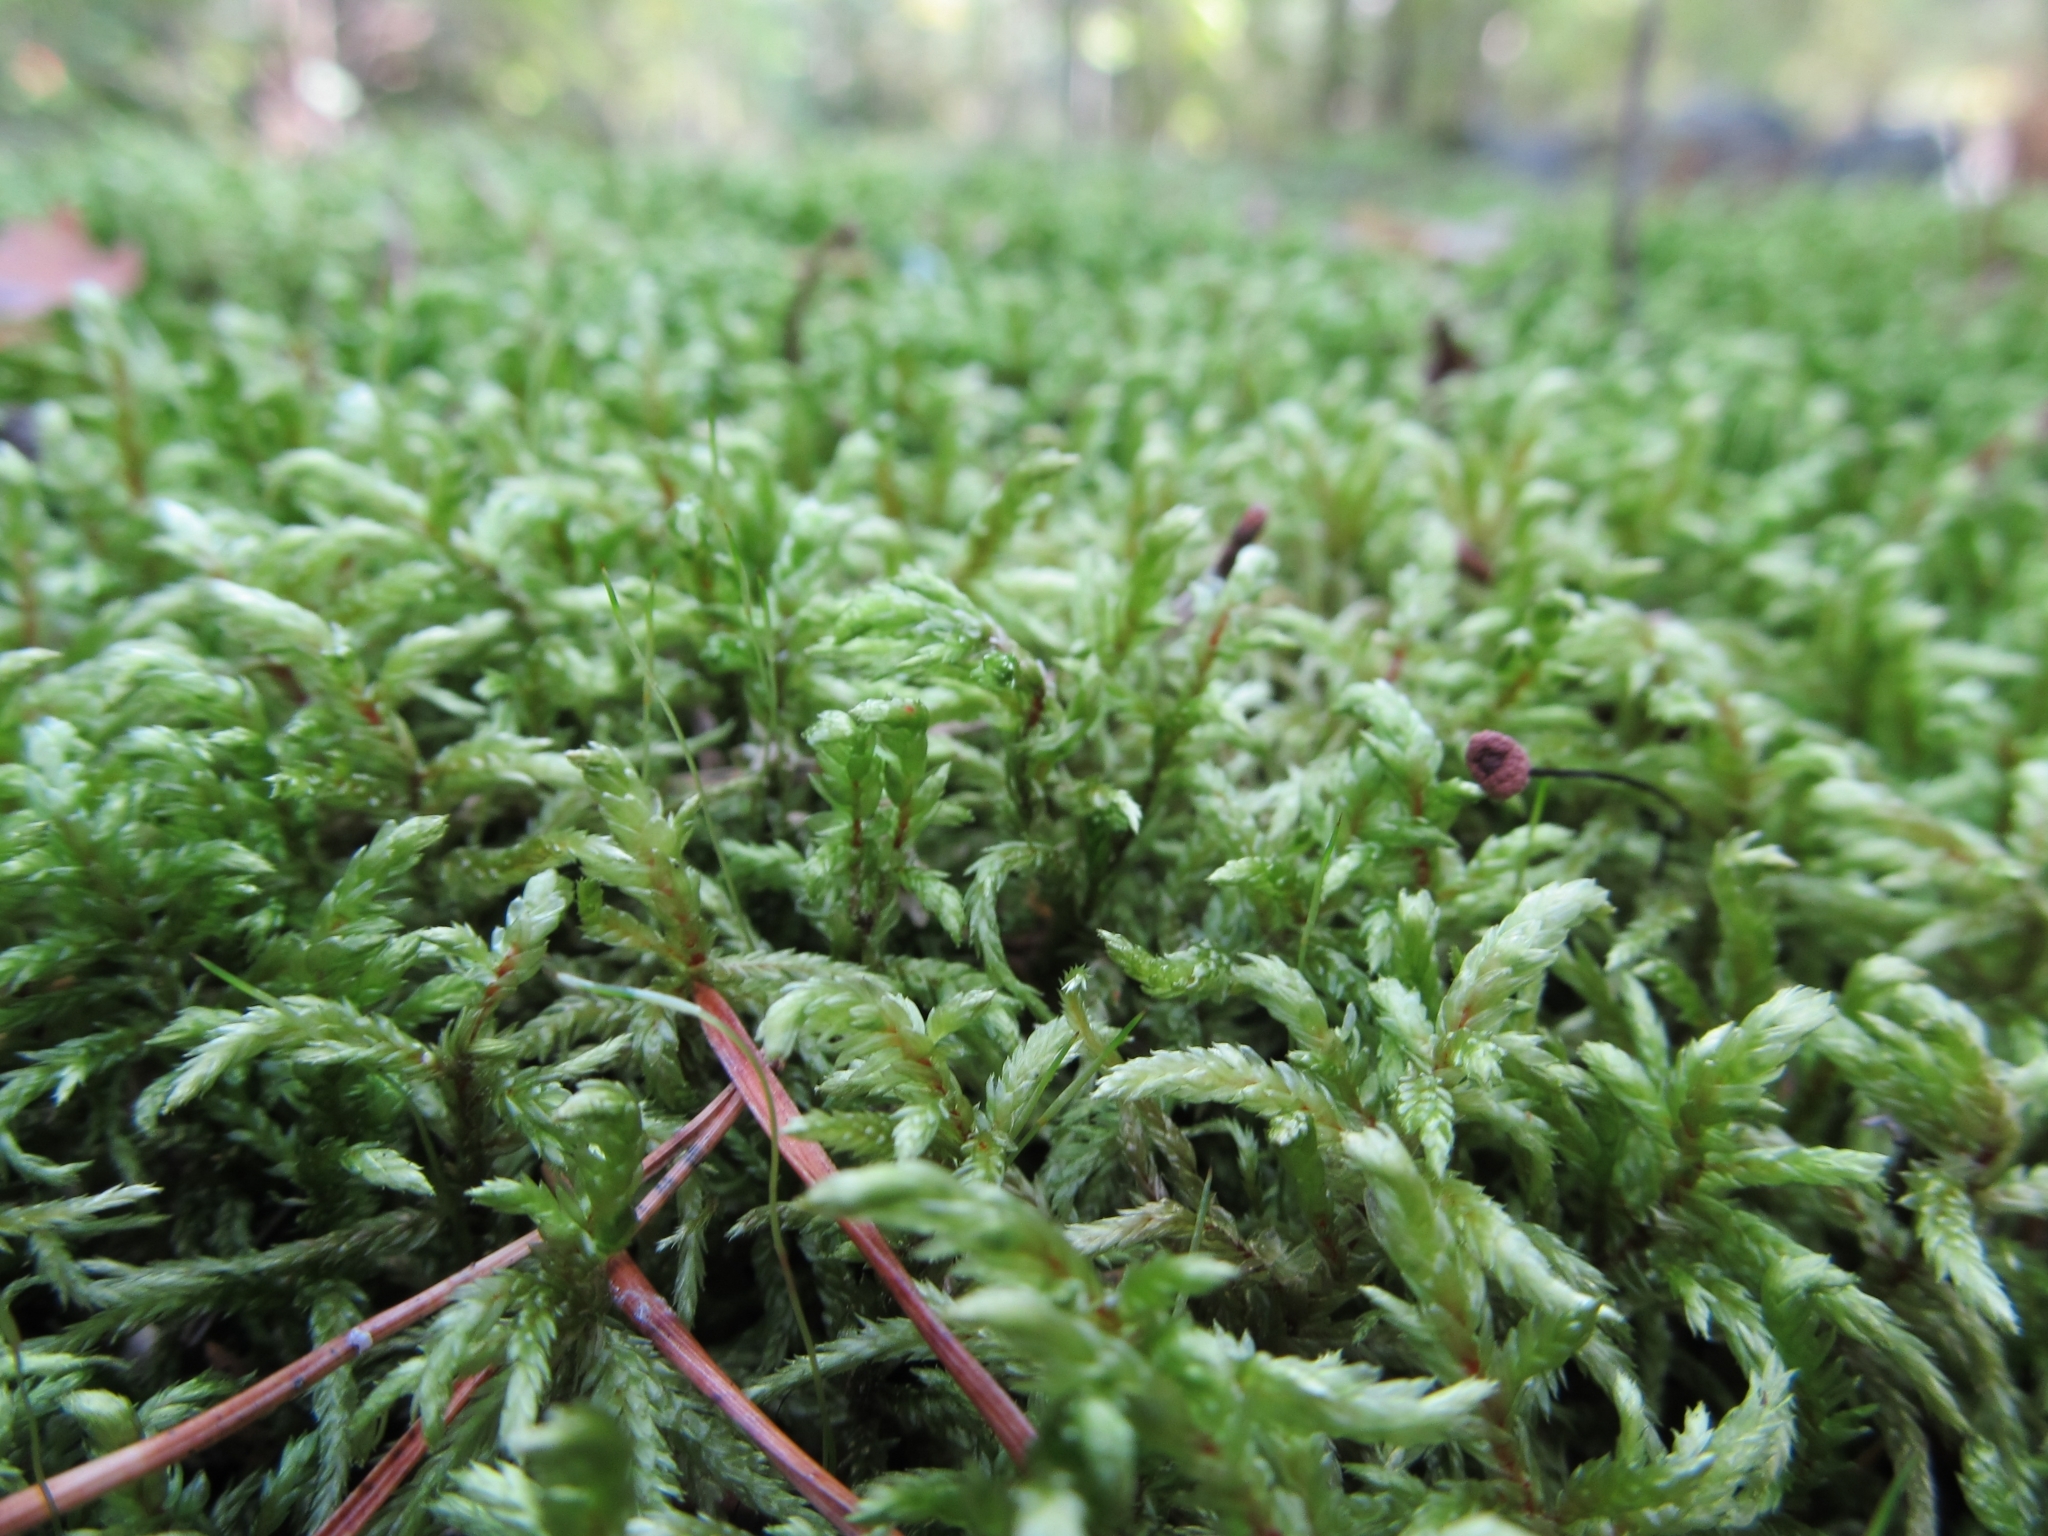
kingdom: Plantae
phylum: Bryophyta
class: Bryopsida
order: Hypnales
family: Hylocomiaceae
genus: Pleurozium
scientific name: Pleurozium schreberi
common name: Red-stemmed feather moss
